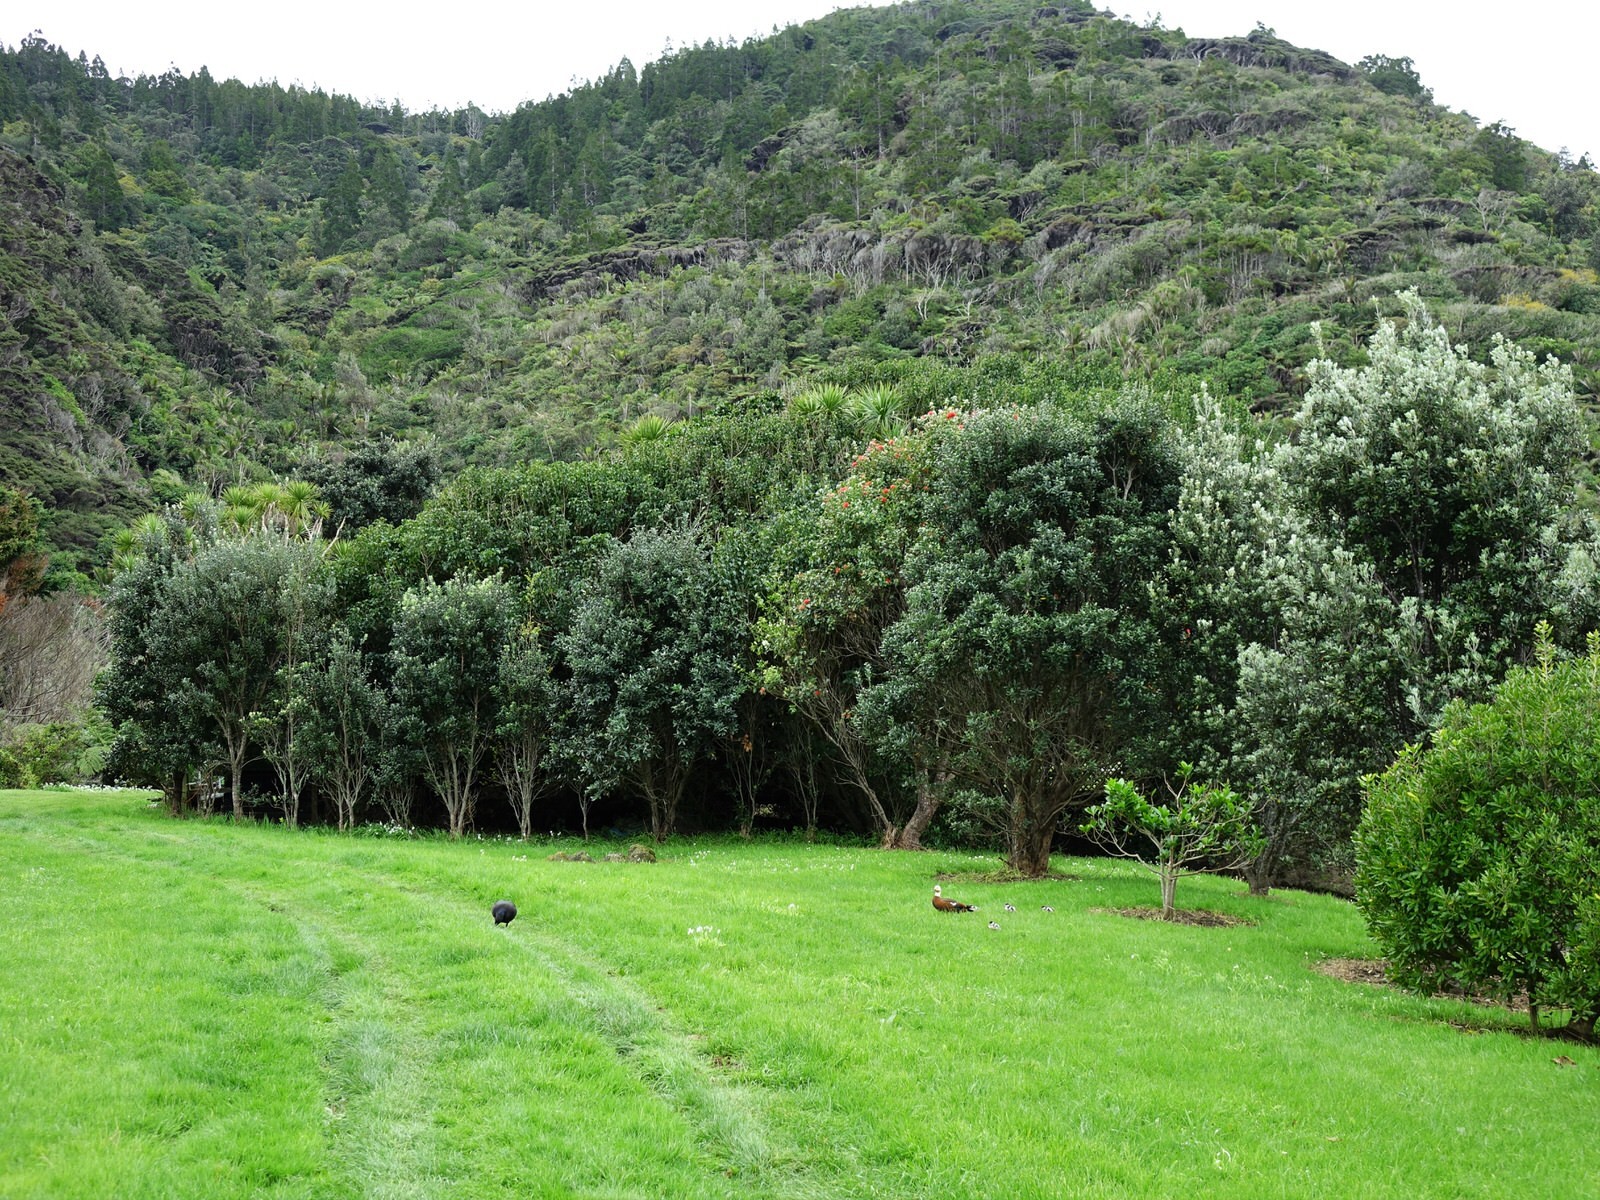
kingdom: Animalia
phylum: Chordata
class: Aves
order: Anseriformes
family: Anatidae
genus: Tadorna
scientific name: Tadorna variegata
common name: Paradise shelduck
